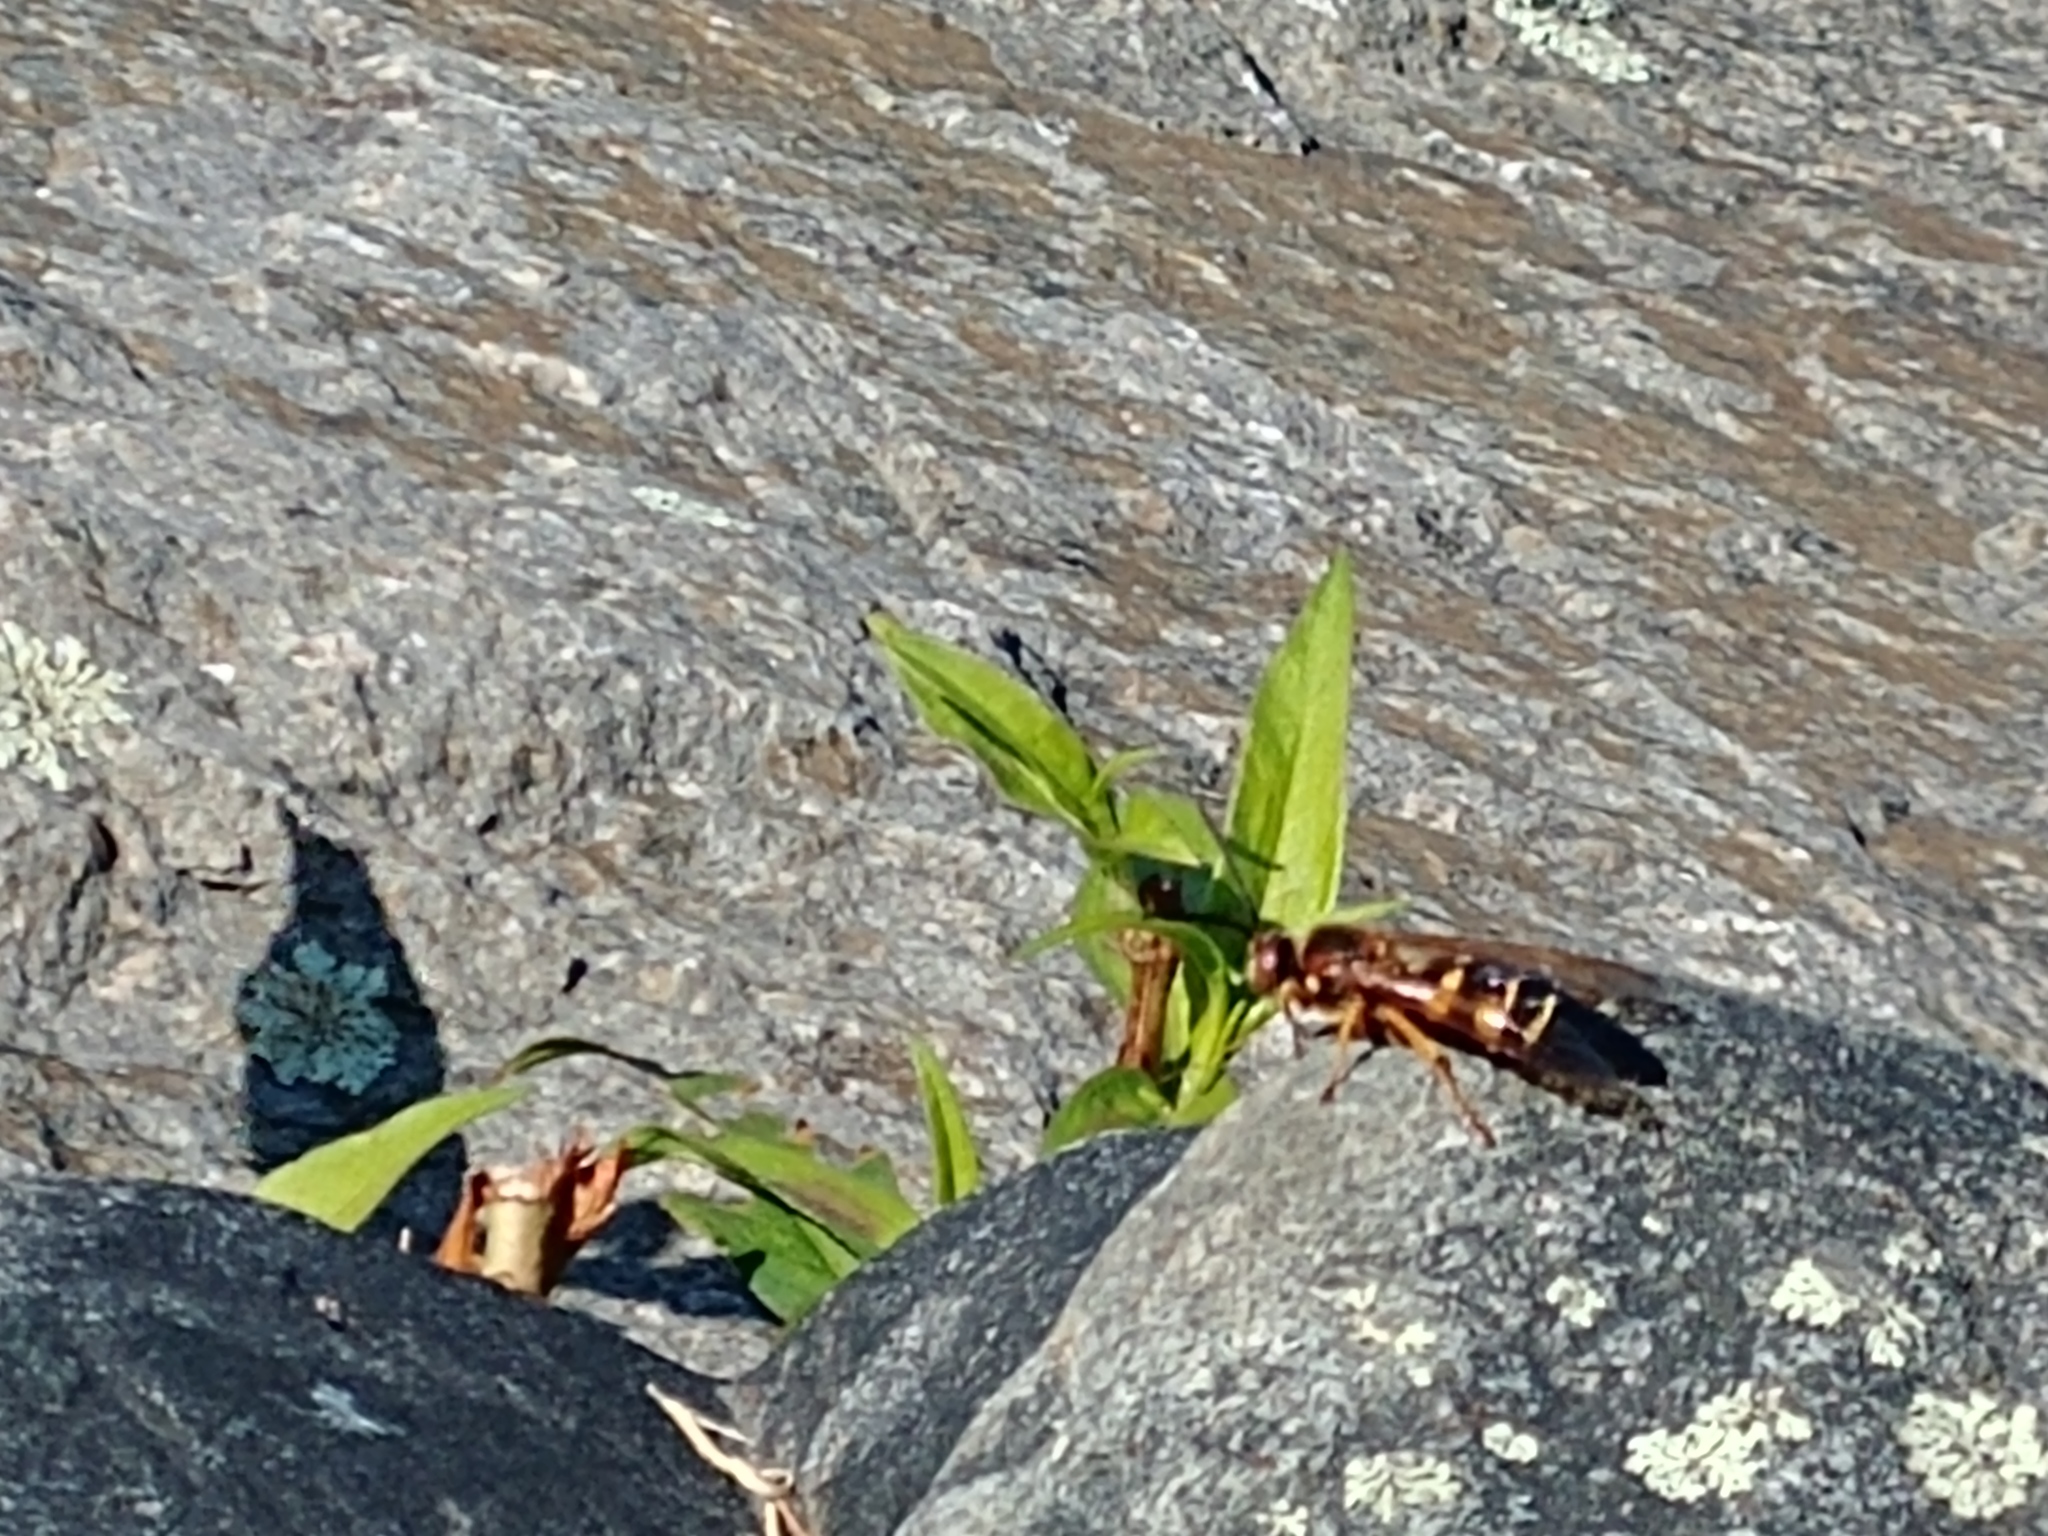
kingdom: Animalia
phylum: Arthropoda
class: Insecta
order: Hymenoptera
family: Crabronidae
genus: Sphecius
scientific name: Sphecius speciosus
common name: Cicada killer
